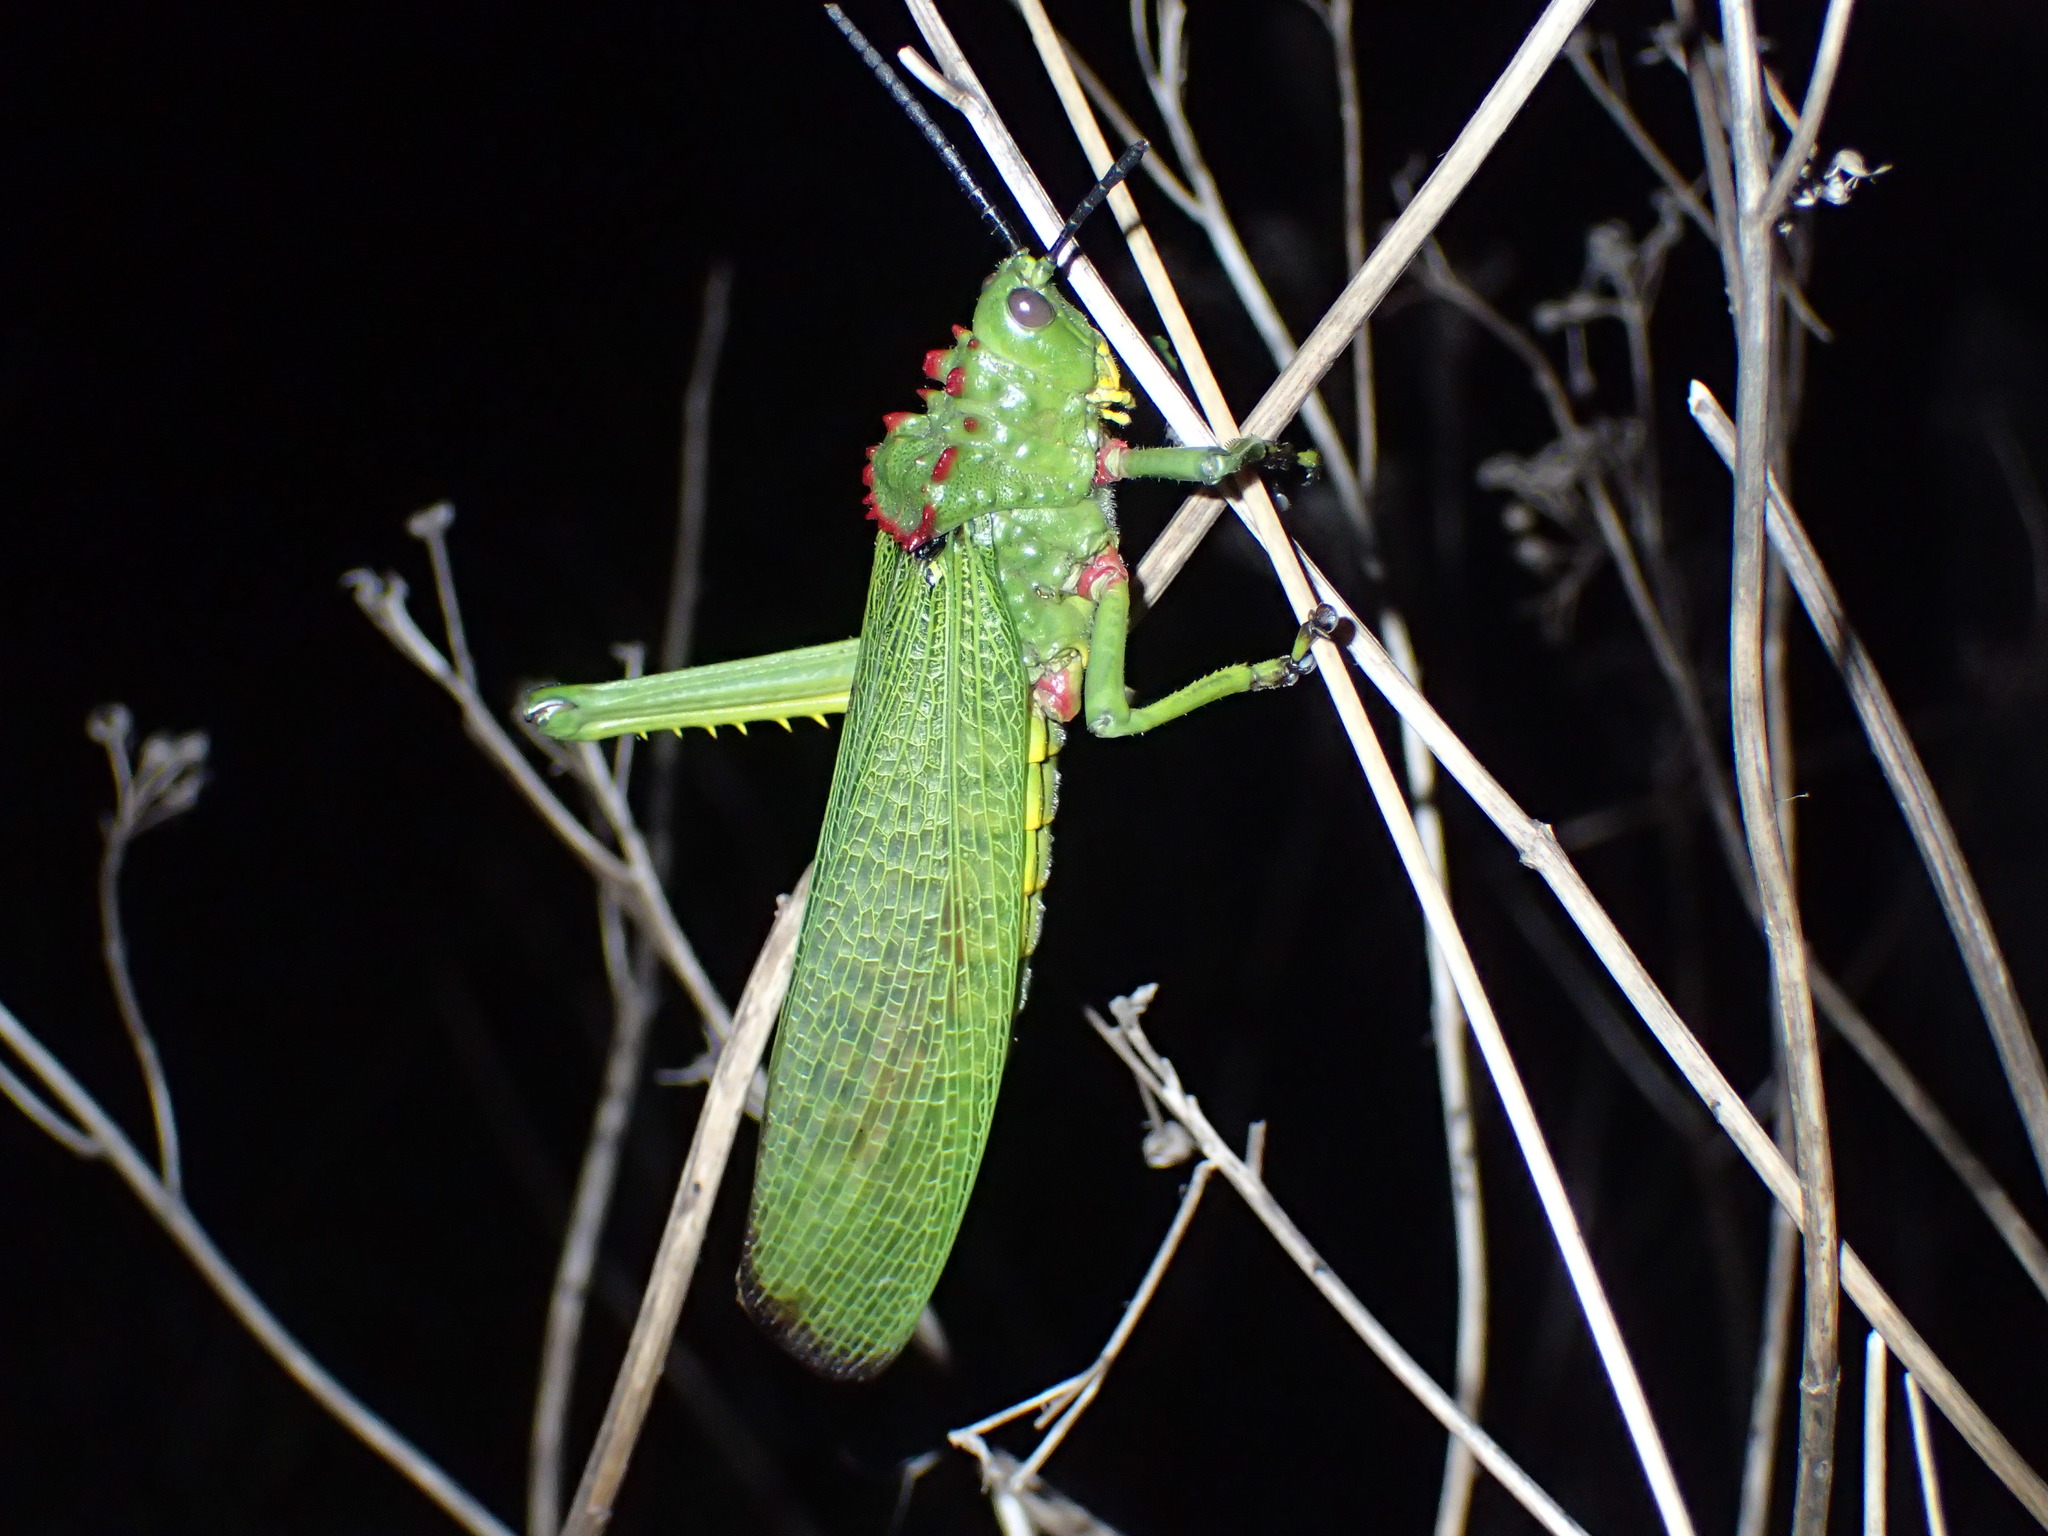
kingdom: Animalia
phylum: Arthropoda
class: Insecta
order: Orthoptera
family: Pyrgomorphidae
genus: Phymateus
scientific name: Phymateus viridipes
